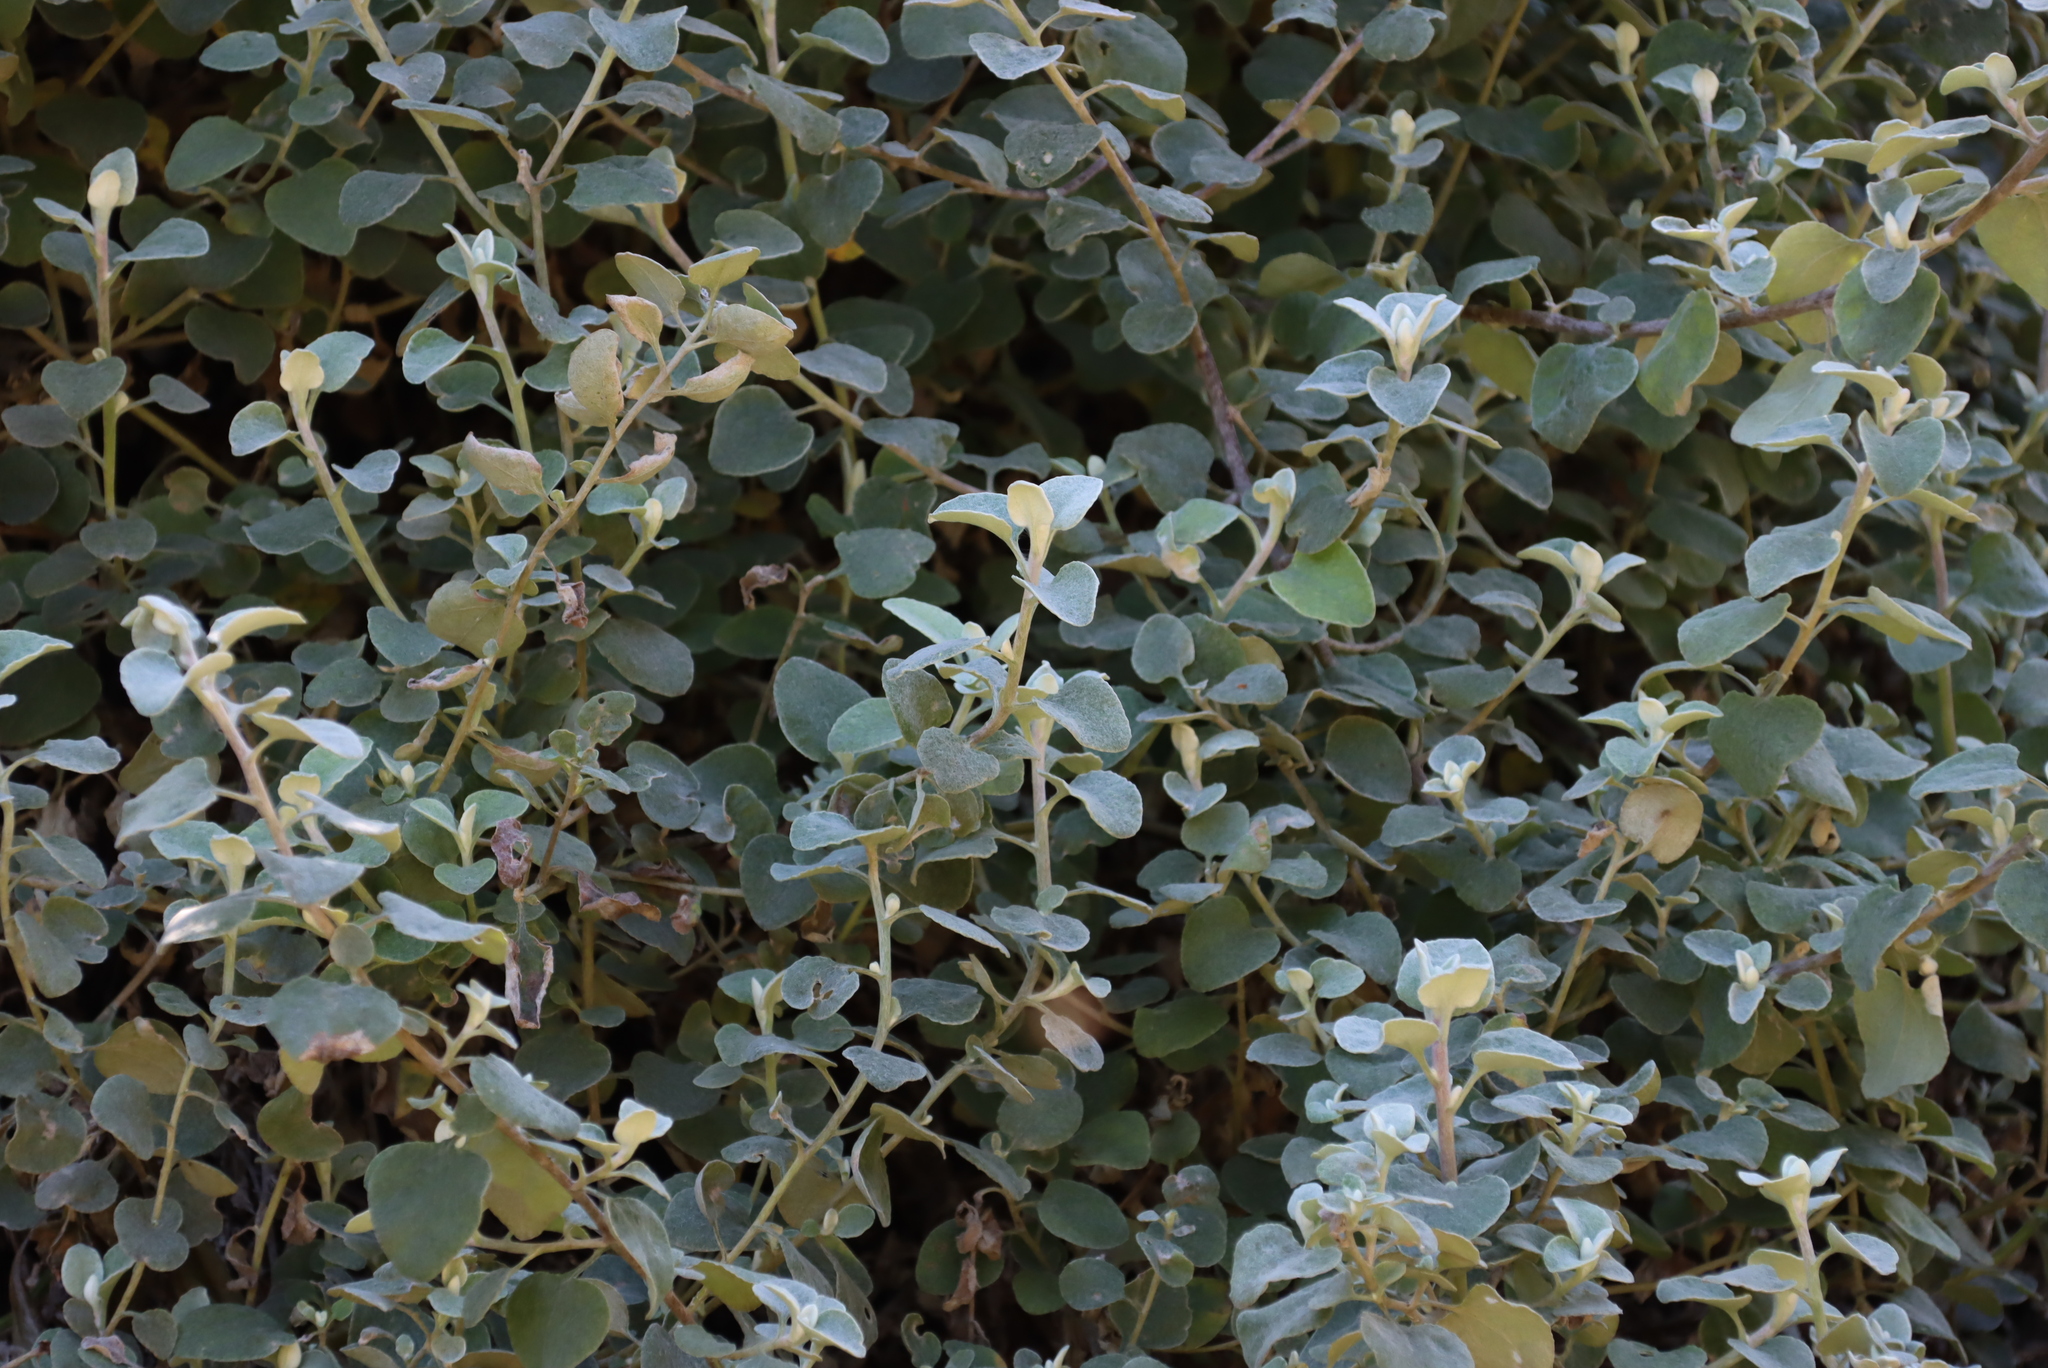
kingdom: Plantae
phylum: Tracheophyta
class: Magnoliopsida
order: Asterales
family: Asteraceae
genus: Helichrysum
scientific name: Helichrysum petiolare
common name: Licorice-plant
